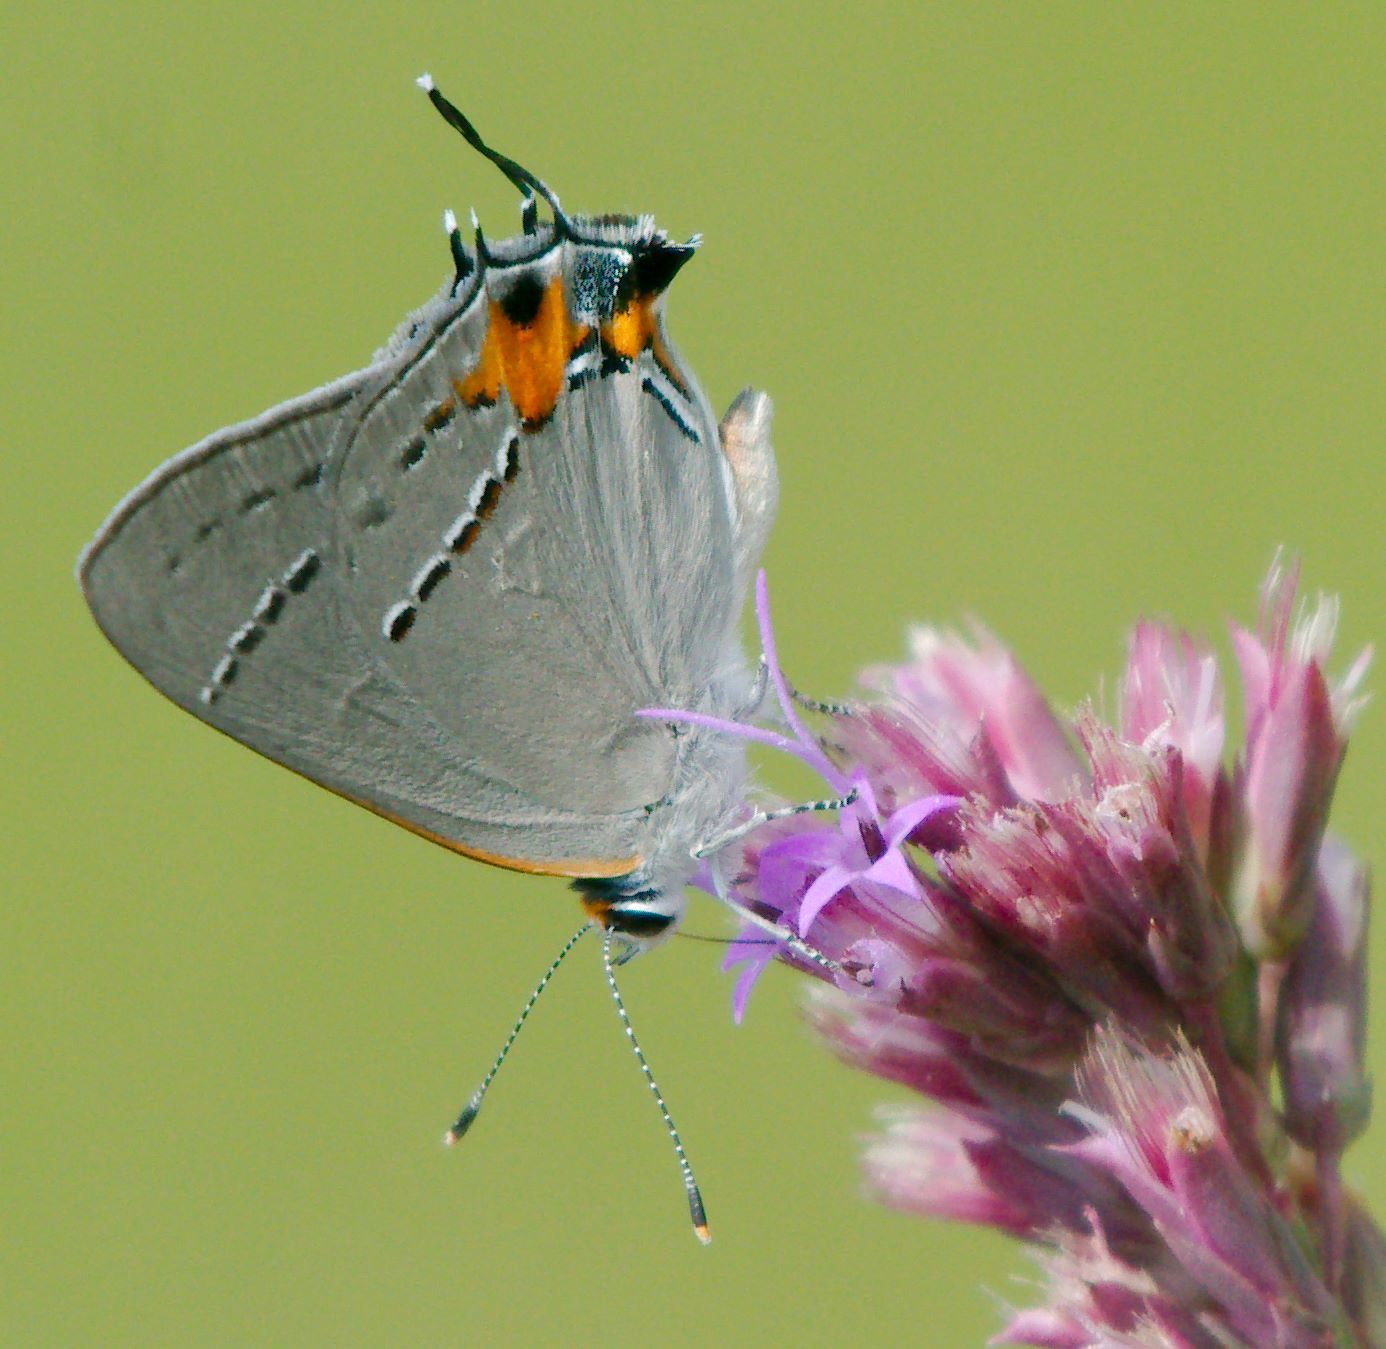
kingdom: Animalia
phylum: Arthropoda
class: Insecta
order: Lepidoptera
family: Lycaenidae
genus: Strymon
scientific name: Strymon melinus
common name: Gray hairstreak
